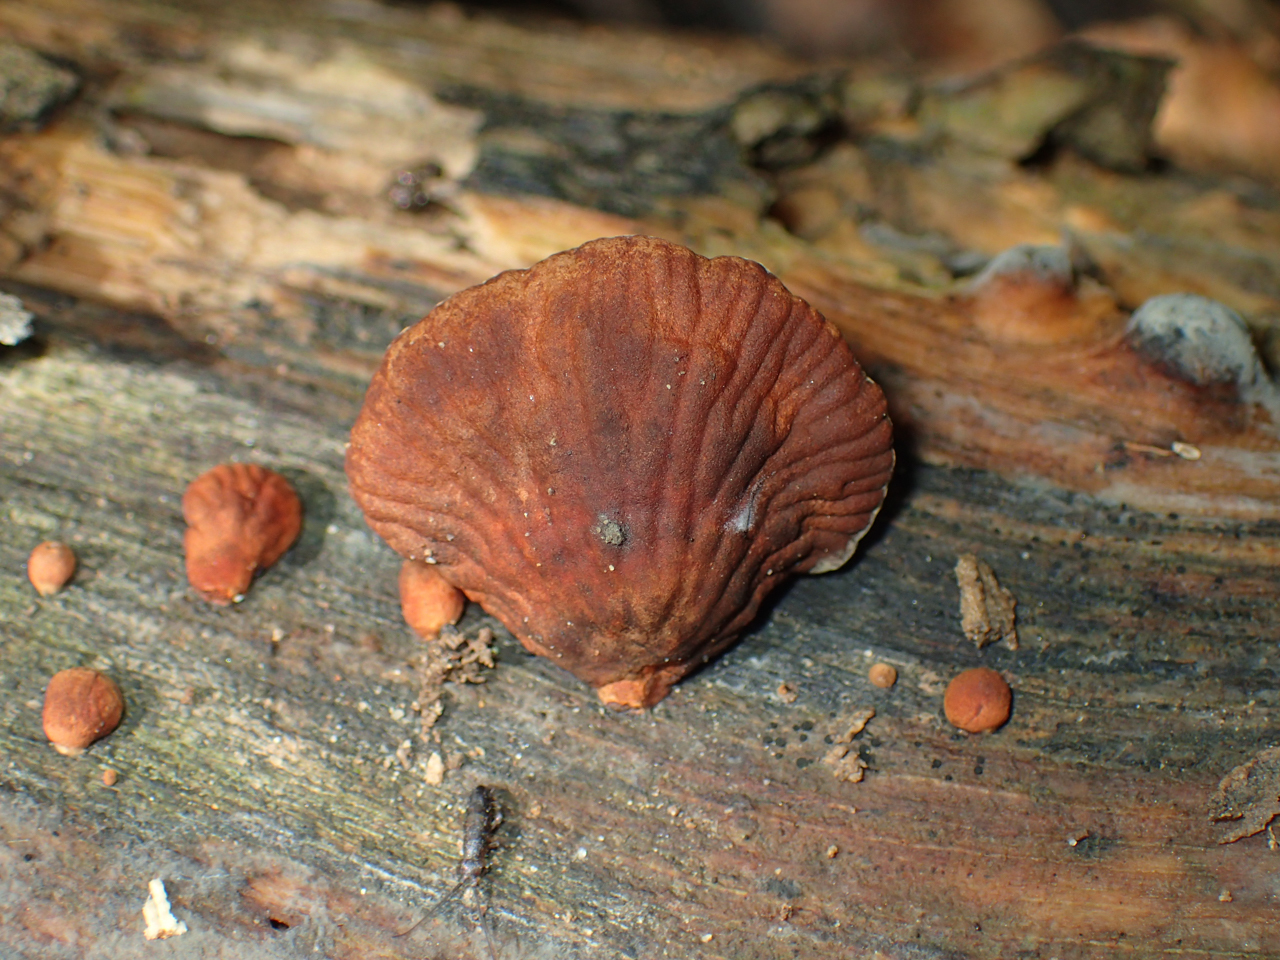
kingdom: Fungi
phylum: Basidiomycota
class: Agaricomycetes
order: Agaricales
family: Omphalotaceae
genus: Anthracophyllum
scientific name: Anthracophyllum lateritium
